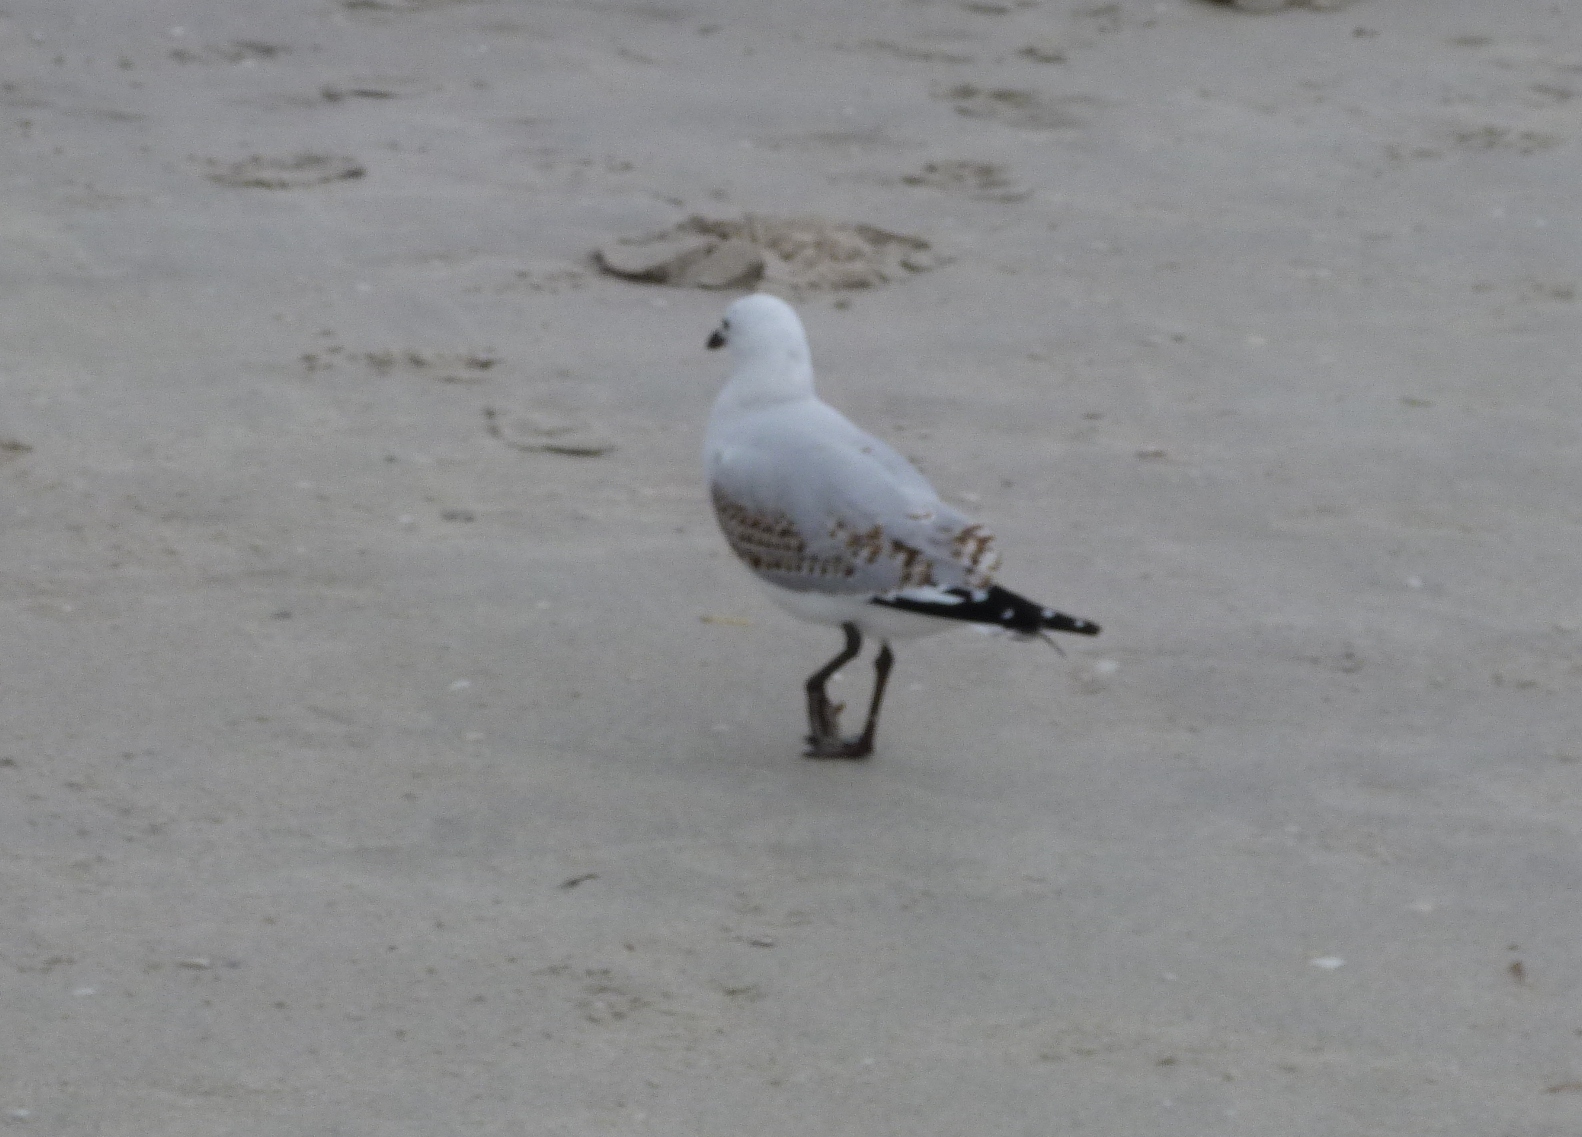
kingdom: Animalia
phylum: Chordata
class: Aves
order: Charadriiformes
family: Laridae
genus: Chroicocephalus
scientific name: Chroicocephalus novaehollandiae
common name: Silver gull
